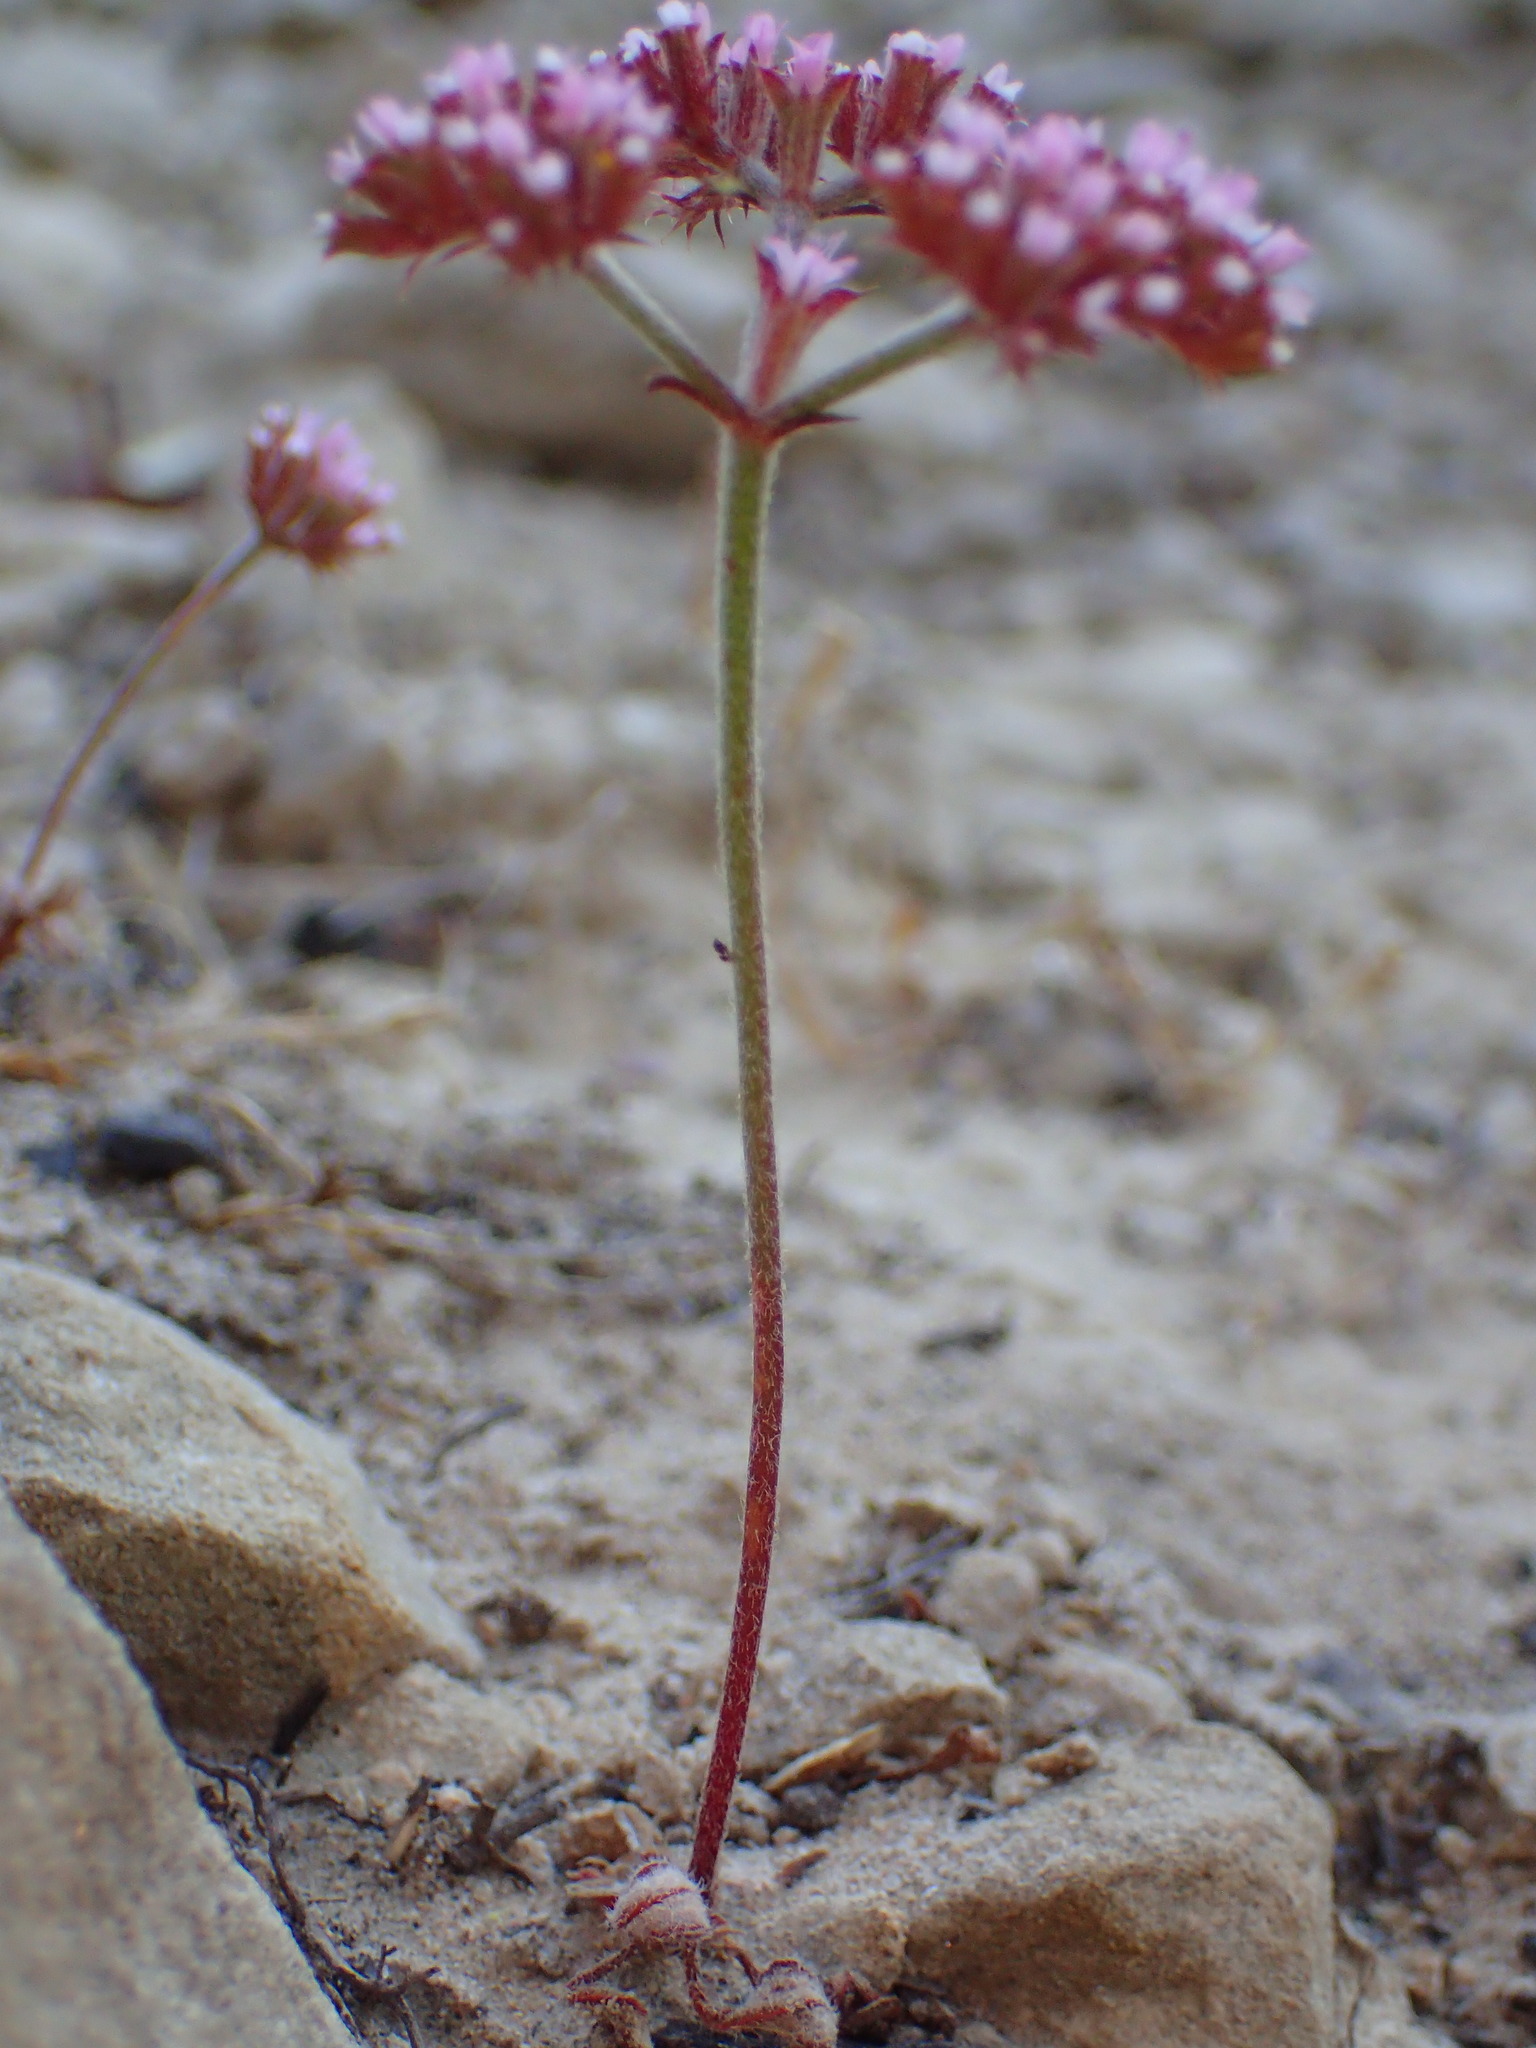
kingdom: Plantae
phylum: Tracheophyta
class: Magnoliopsida
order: Caryophyllales
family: Polygonaceae
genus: Chorizanthe
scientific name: Chorizanthe staticoides
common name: Turkish rugging
